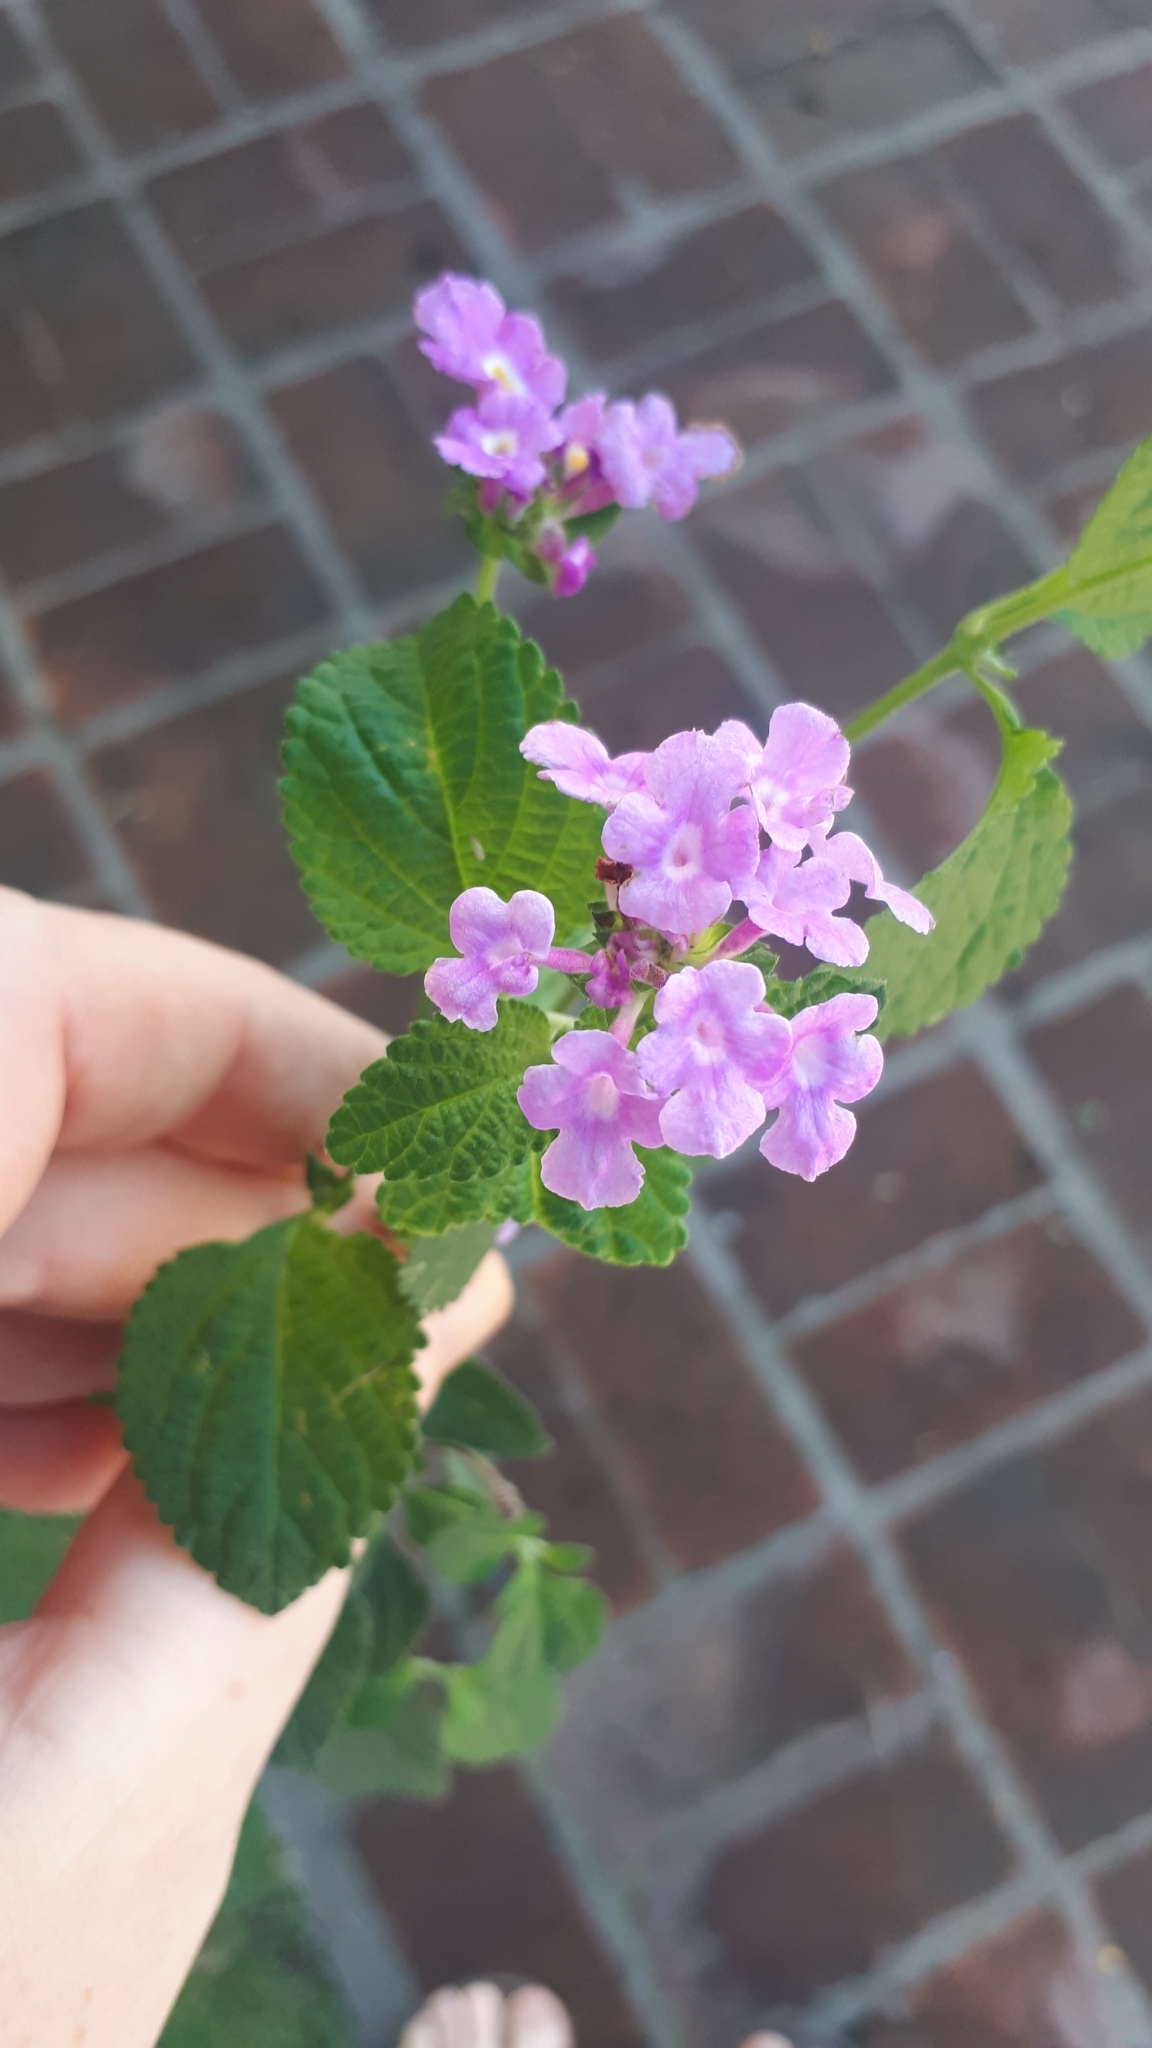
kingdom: Plantae
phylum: Tracheophyta
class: Magnoliopsida
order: Lamiales
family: Verbenaceae
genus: Lantana
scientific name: Lantana montevidensis
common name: Trailing shrubverbena
